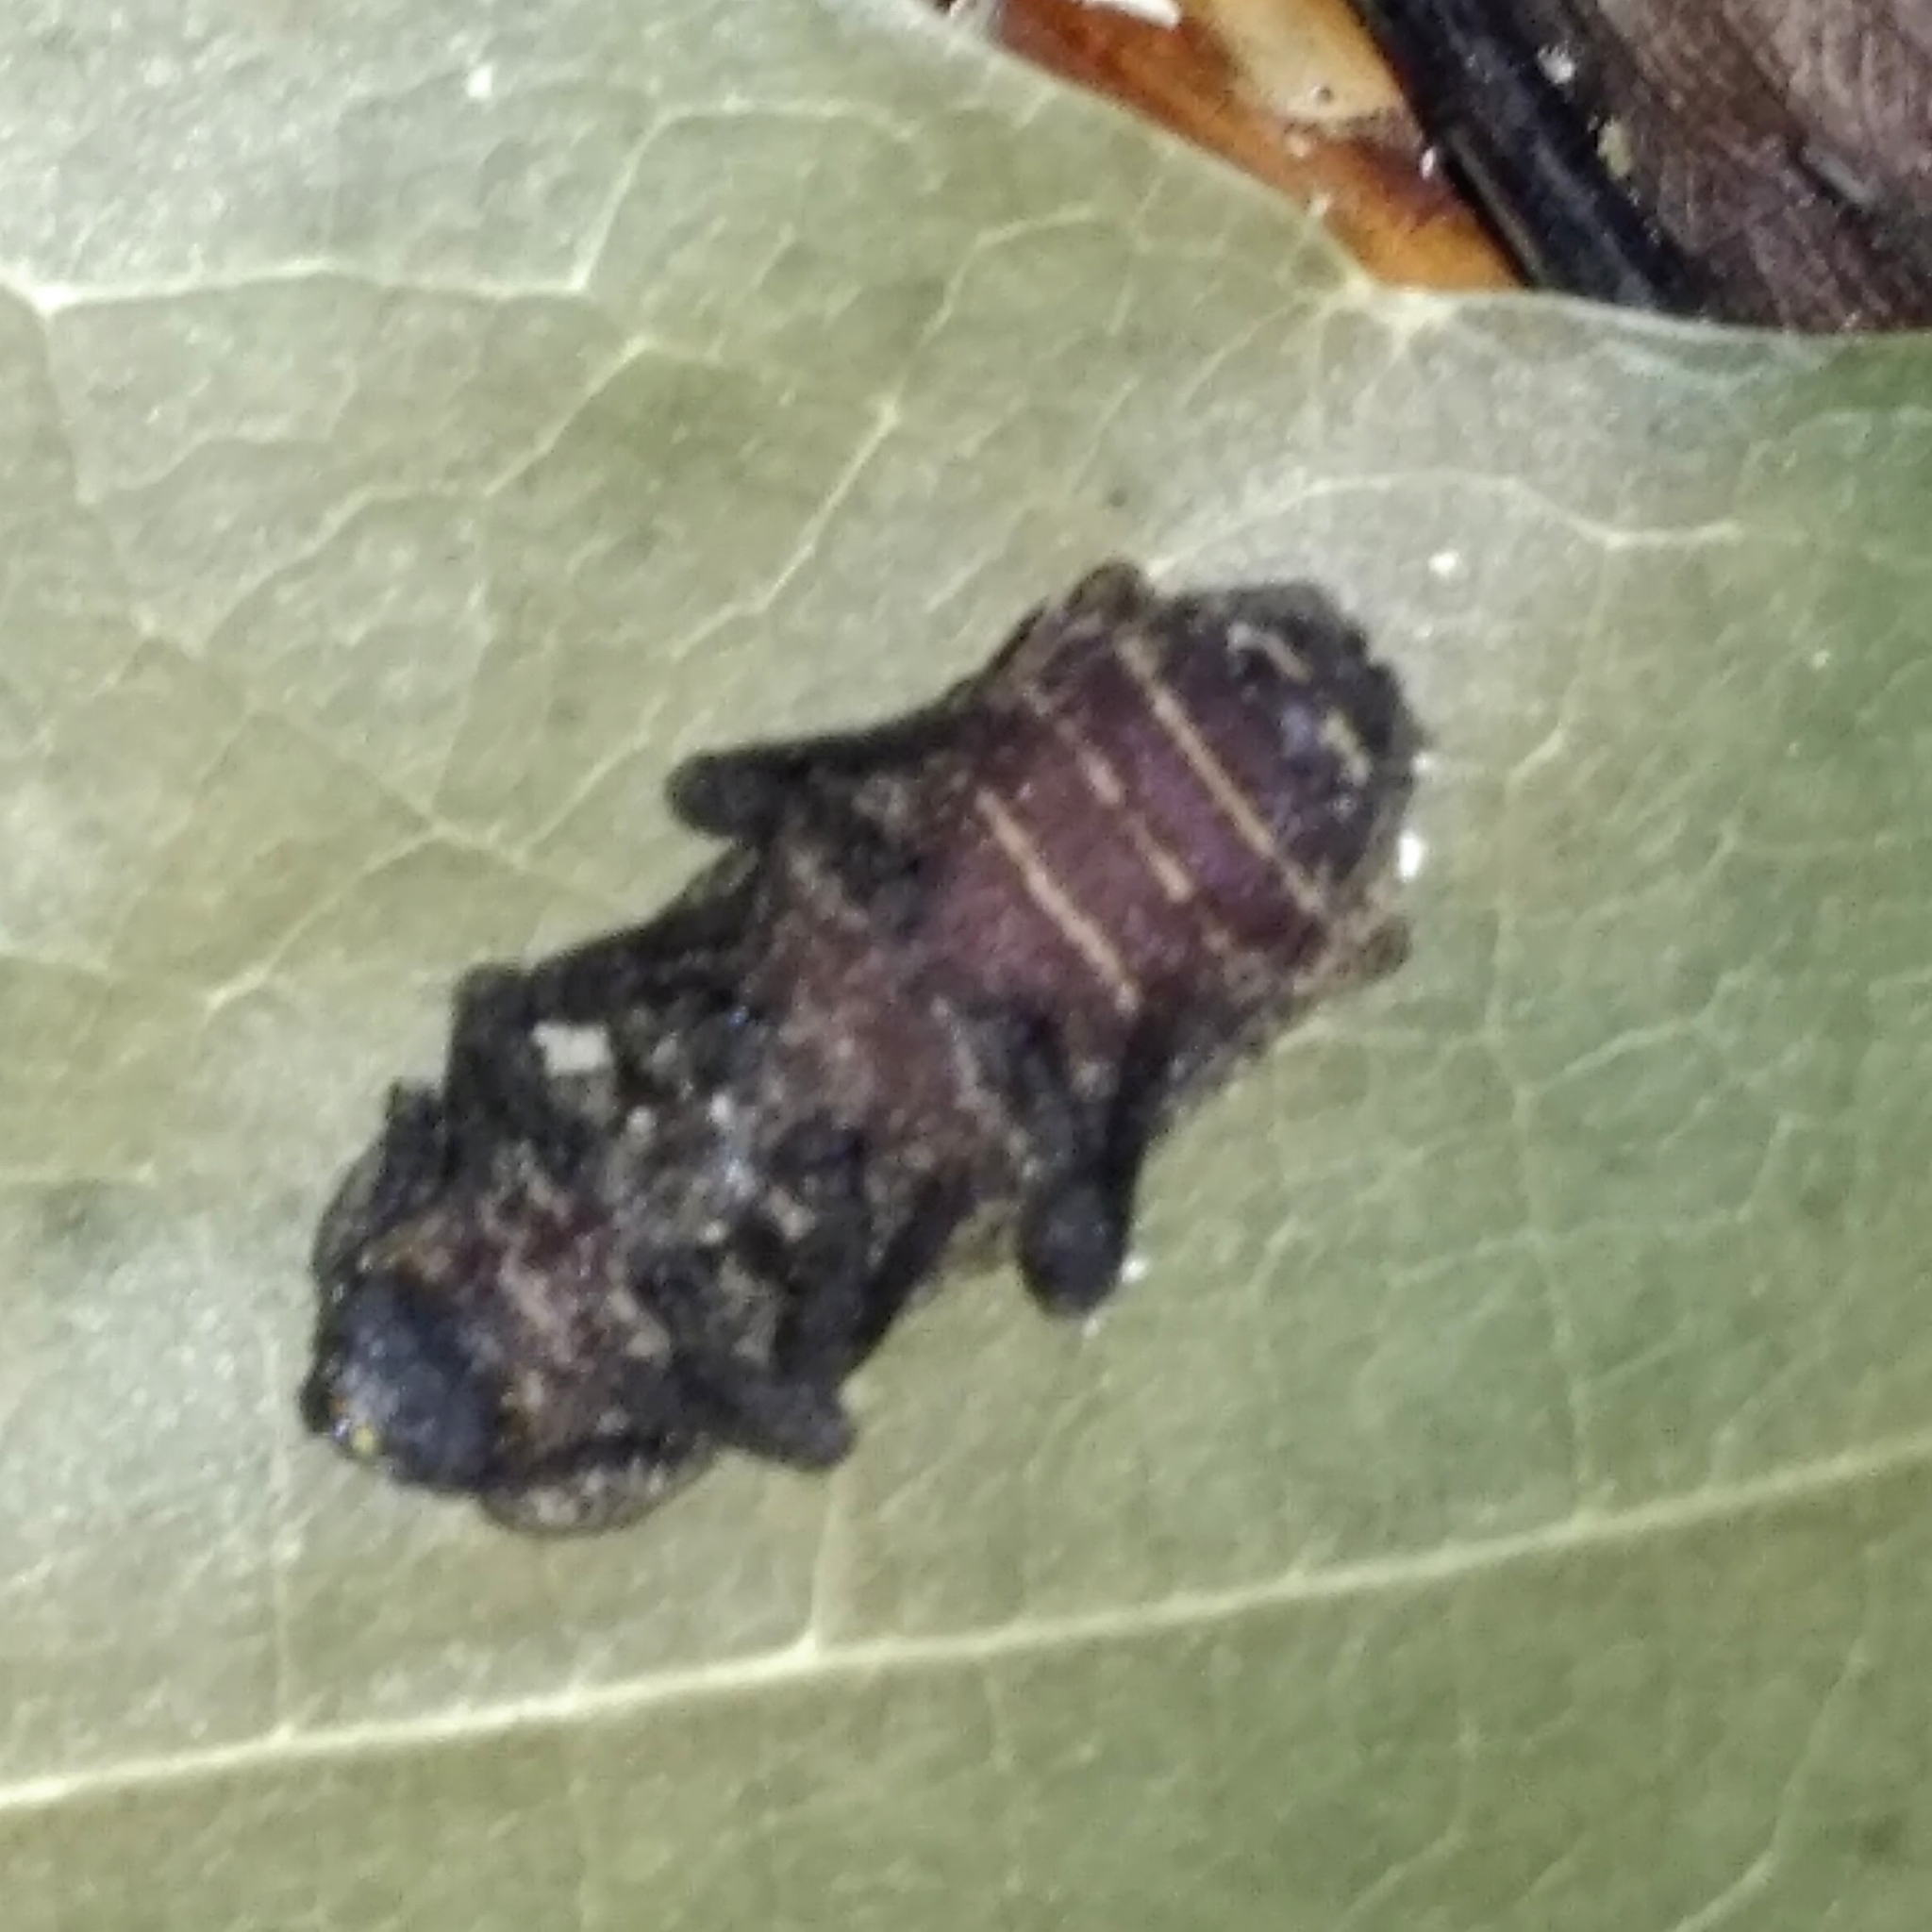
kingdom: Animalia
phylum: Arthropoda
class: Insecta
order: Coleoptera
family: Zopheridae
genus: Phellopsis
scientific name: Phellopsis obcordata
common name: Eastern ironclad beetle
